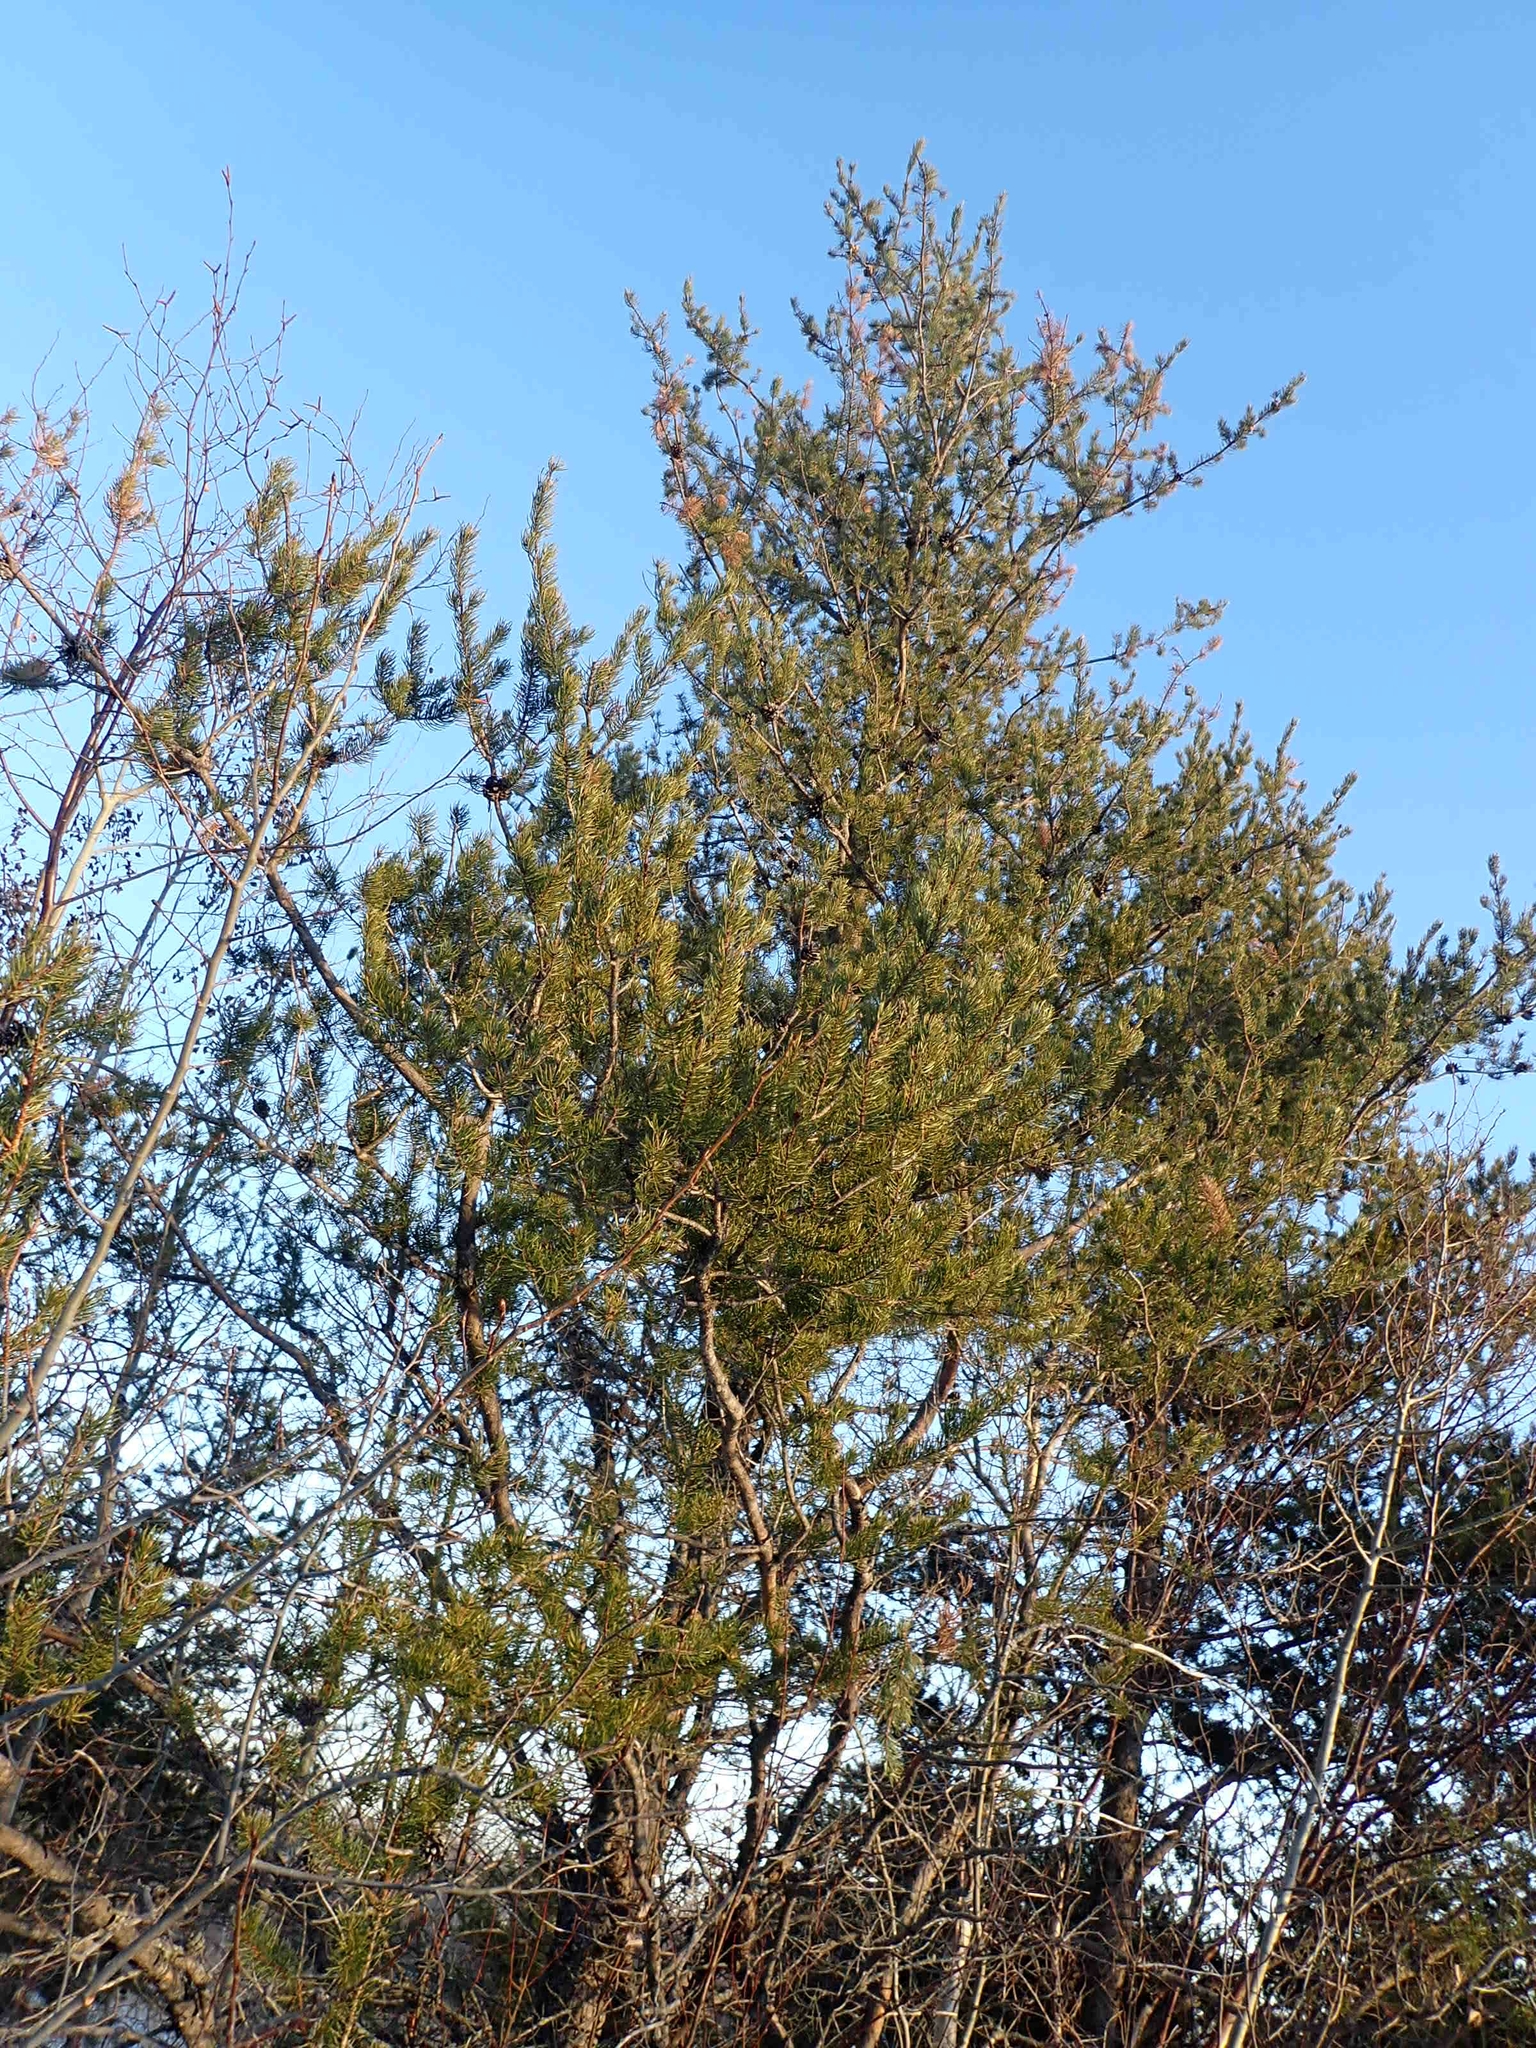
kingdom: Plantae
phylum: Tracheophyta
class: Pinopsida
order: Pinales
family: Pinaceae
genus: Pinus
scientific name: Pinus banksiana
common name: Jack pine
